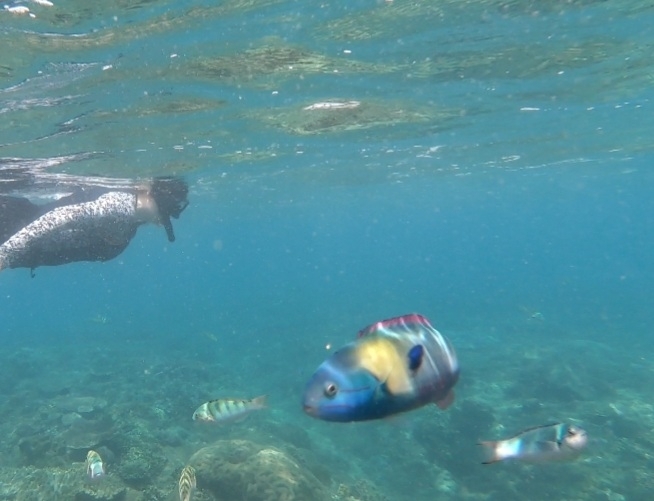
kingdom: Animalia
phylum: Chordata
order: Perciformes
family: Labridae
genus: Thalassoma
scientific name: Thalassoma amblycephalum
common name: Bluehead wrasse
